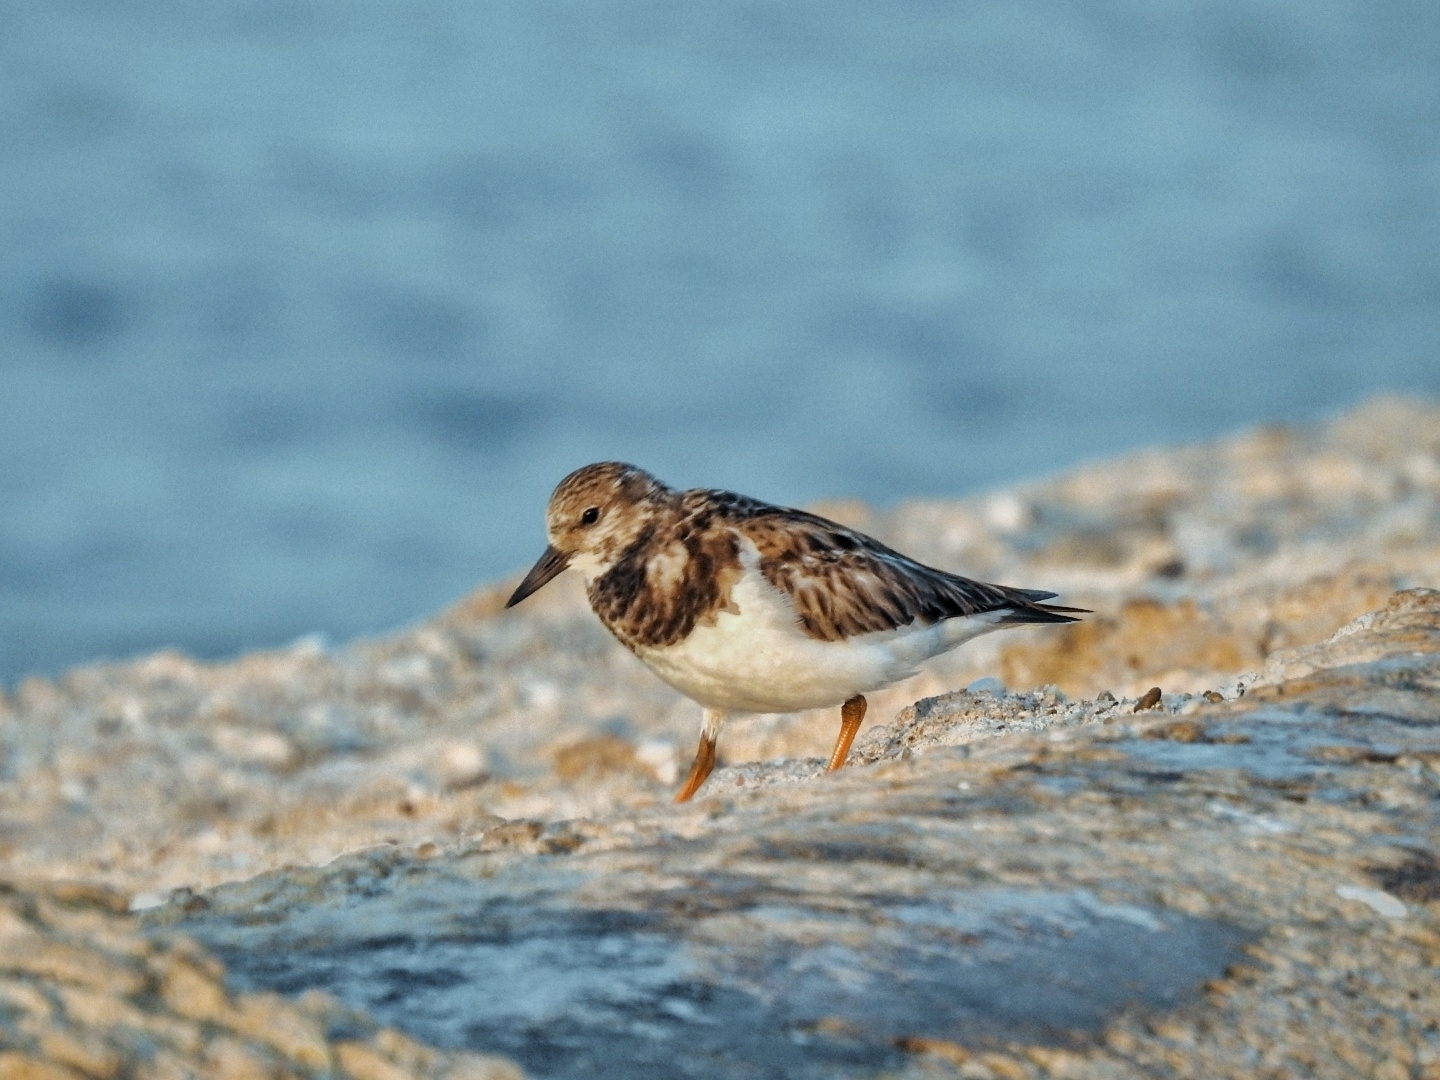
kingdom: Animalia
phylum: Chordata
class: Aves
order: Charadriiformes
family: Scolopacidae
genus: Arenaria
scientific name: Arenaria interpres
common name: Ruddy turnstone
